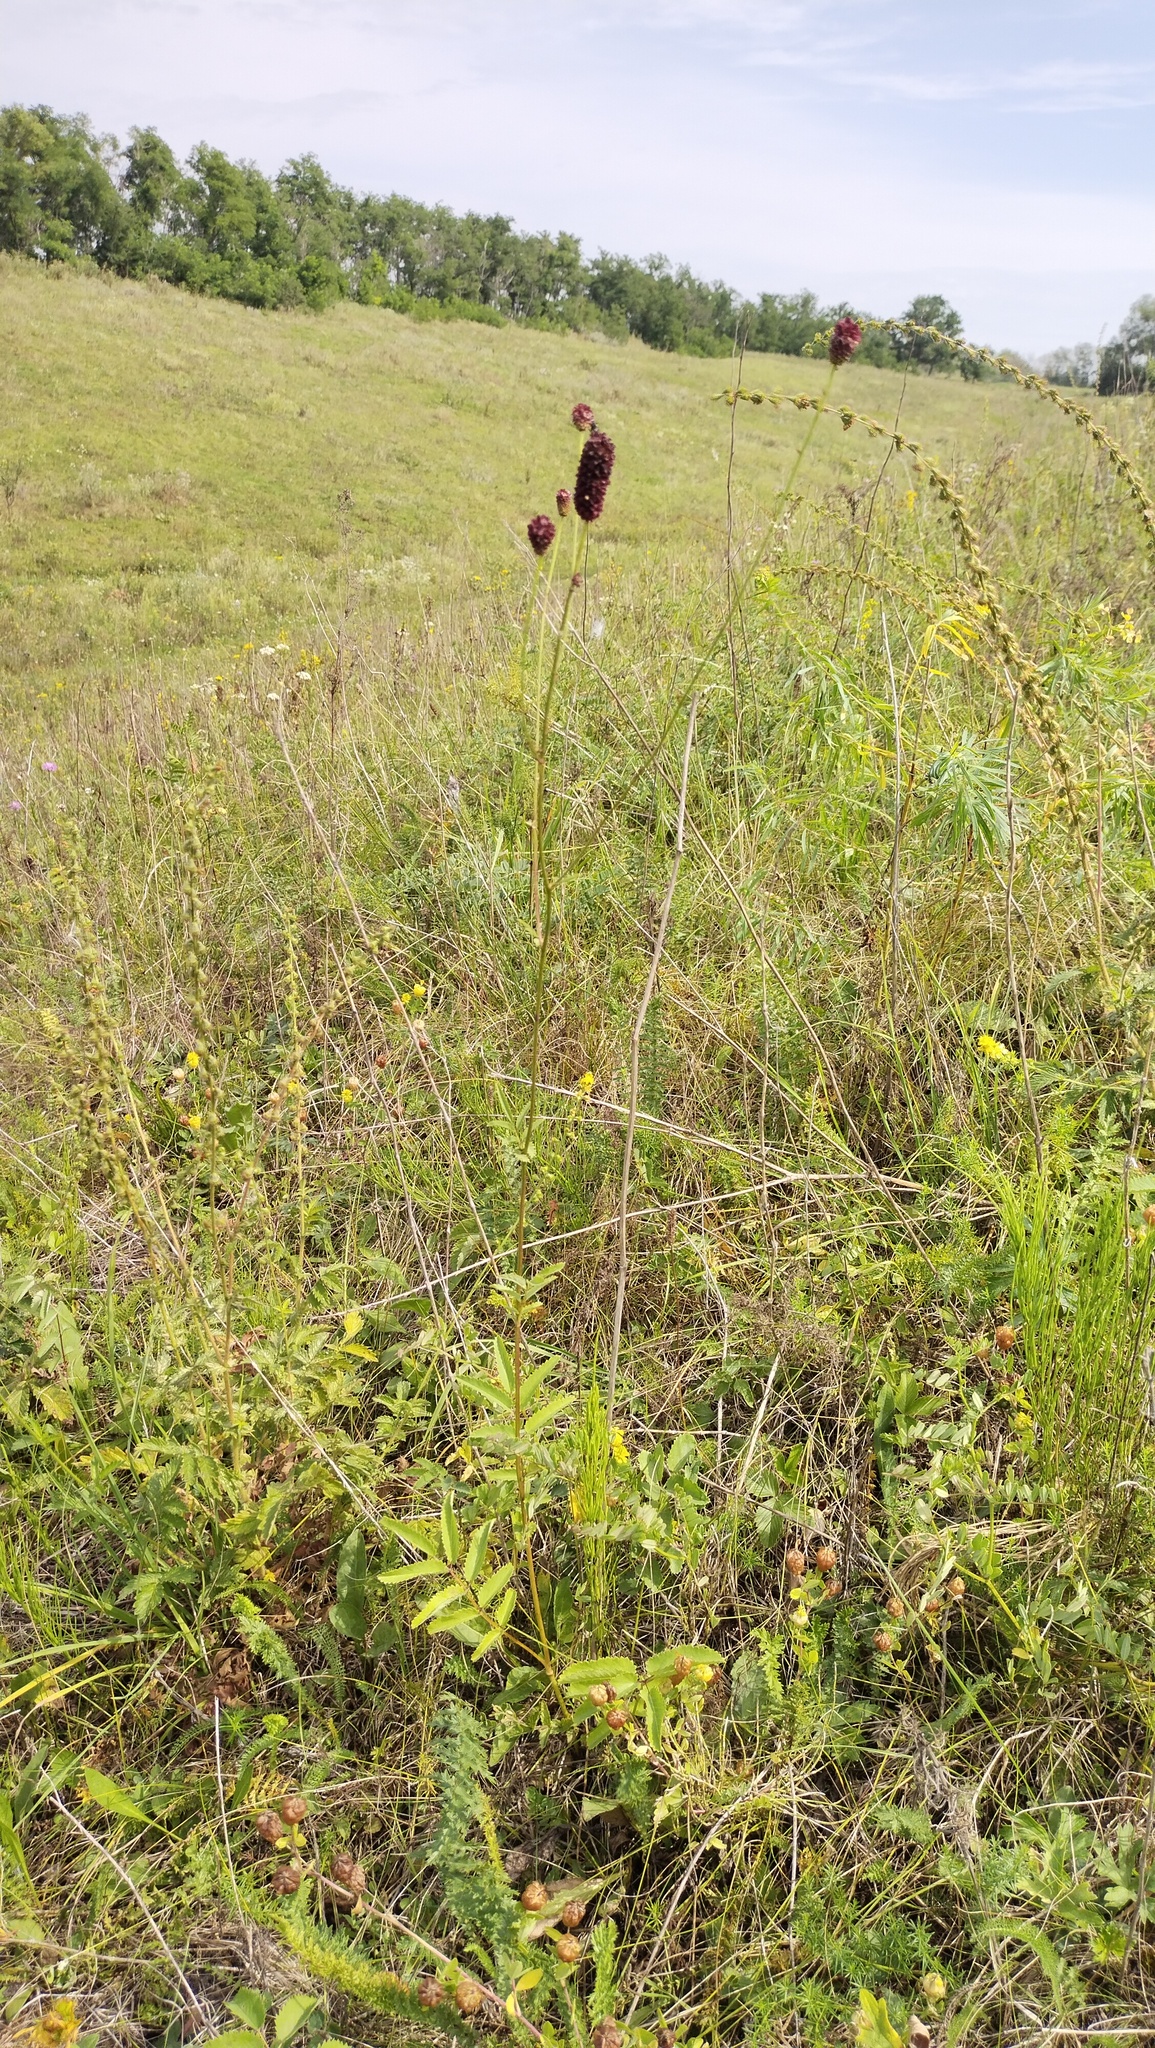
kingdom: Plantae
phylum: Tracheophyta
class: Magnoliopsida
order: Rosales
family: Rosaceae
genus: Sanguisorba
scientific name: Sanguisorba officinalis
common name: Great burnet
